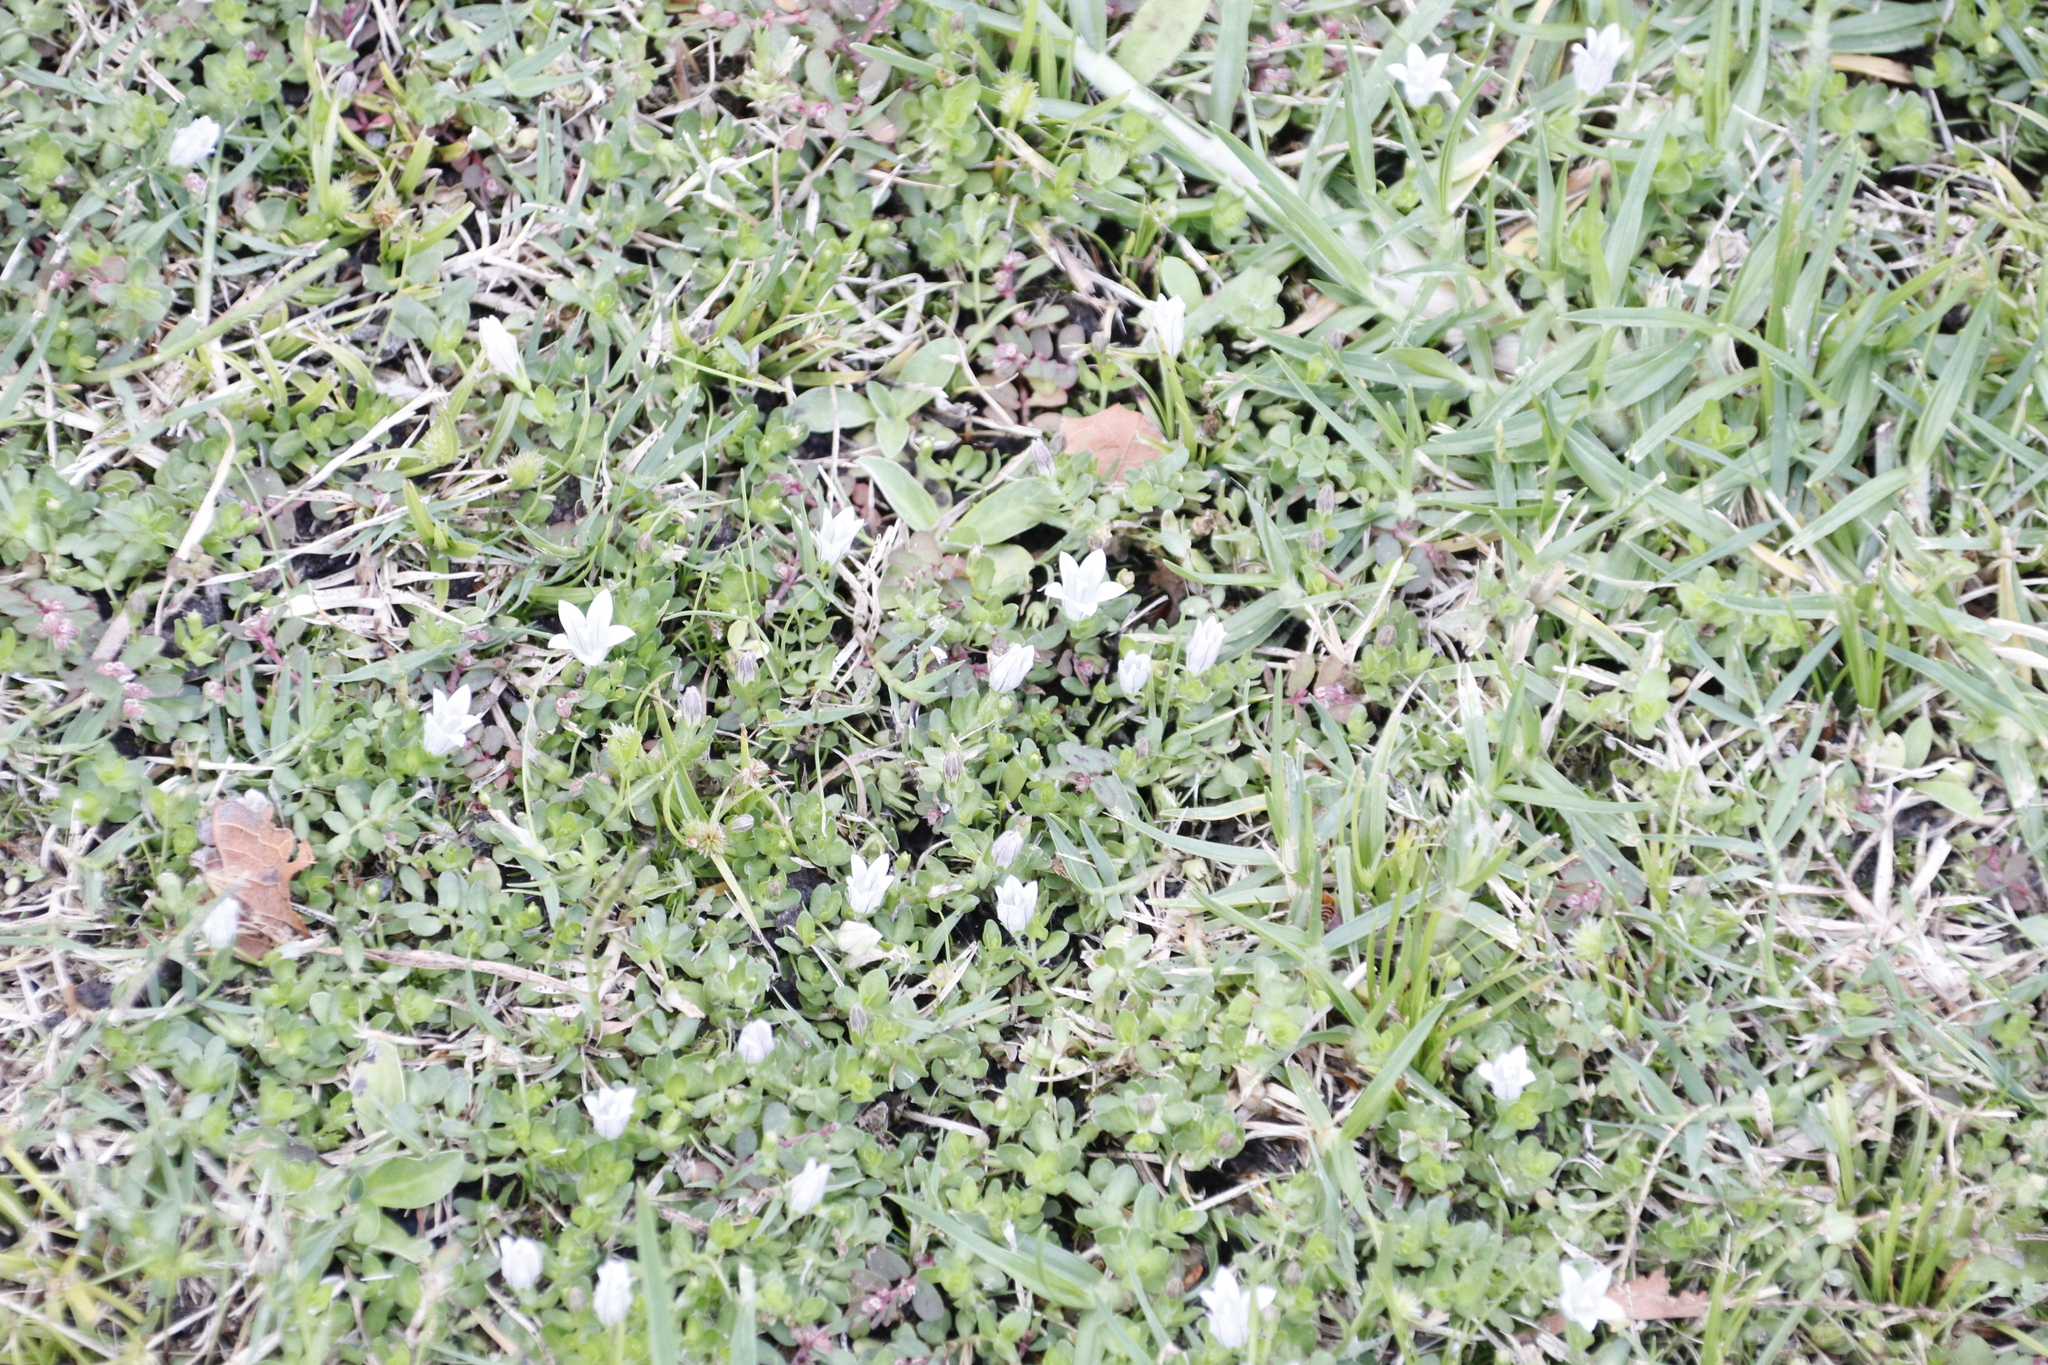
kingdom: Plantae
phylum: Tracheophyta
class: Magnoliopsida
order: Asterales
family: Campanulaceae
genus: Wahlenbergia
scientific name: Wahlenbergia procumbens
